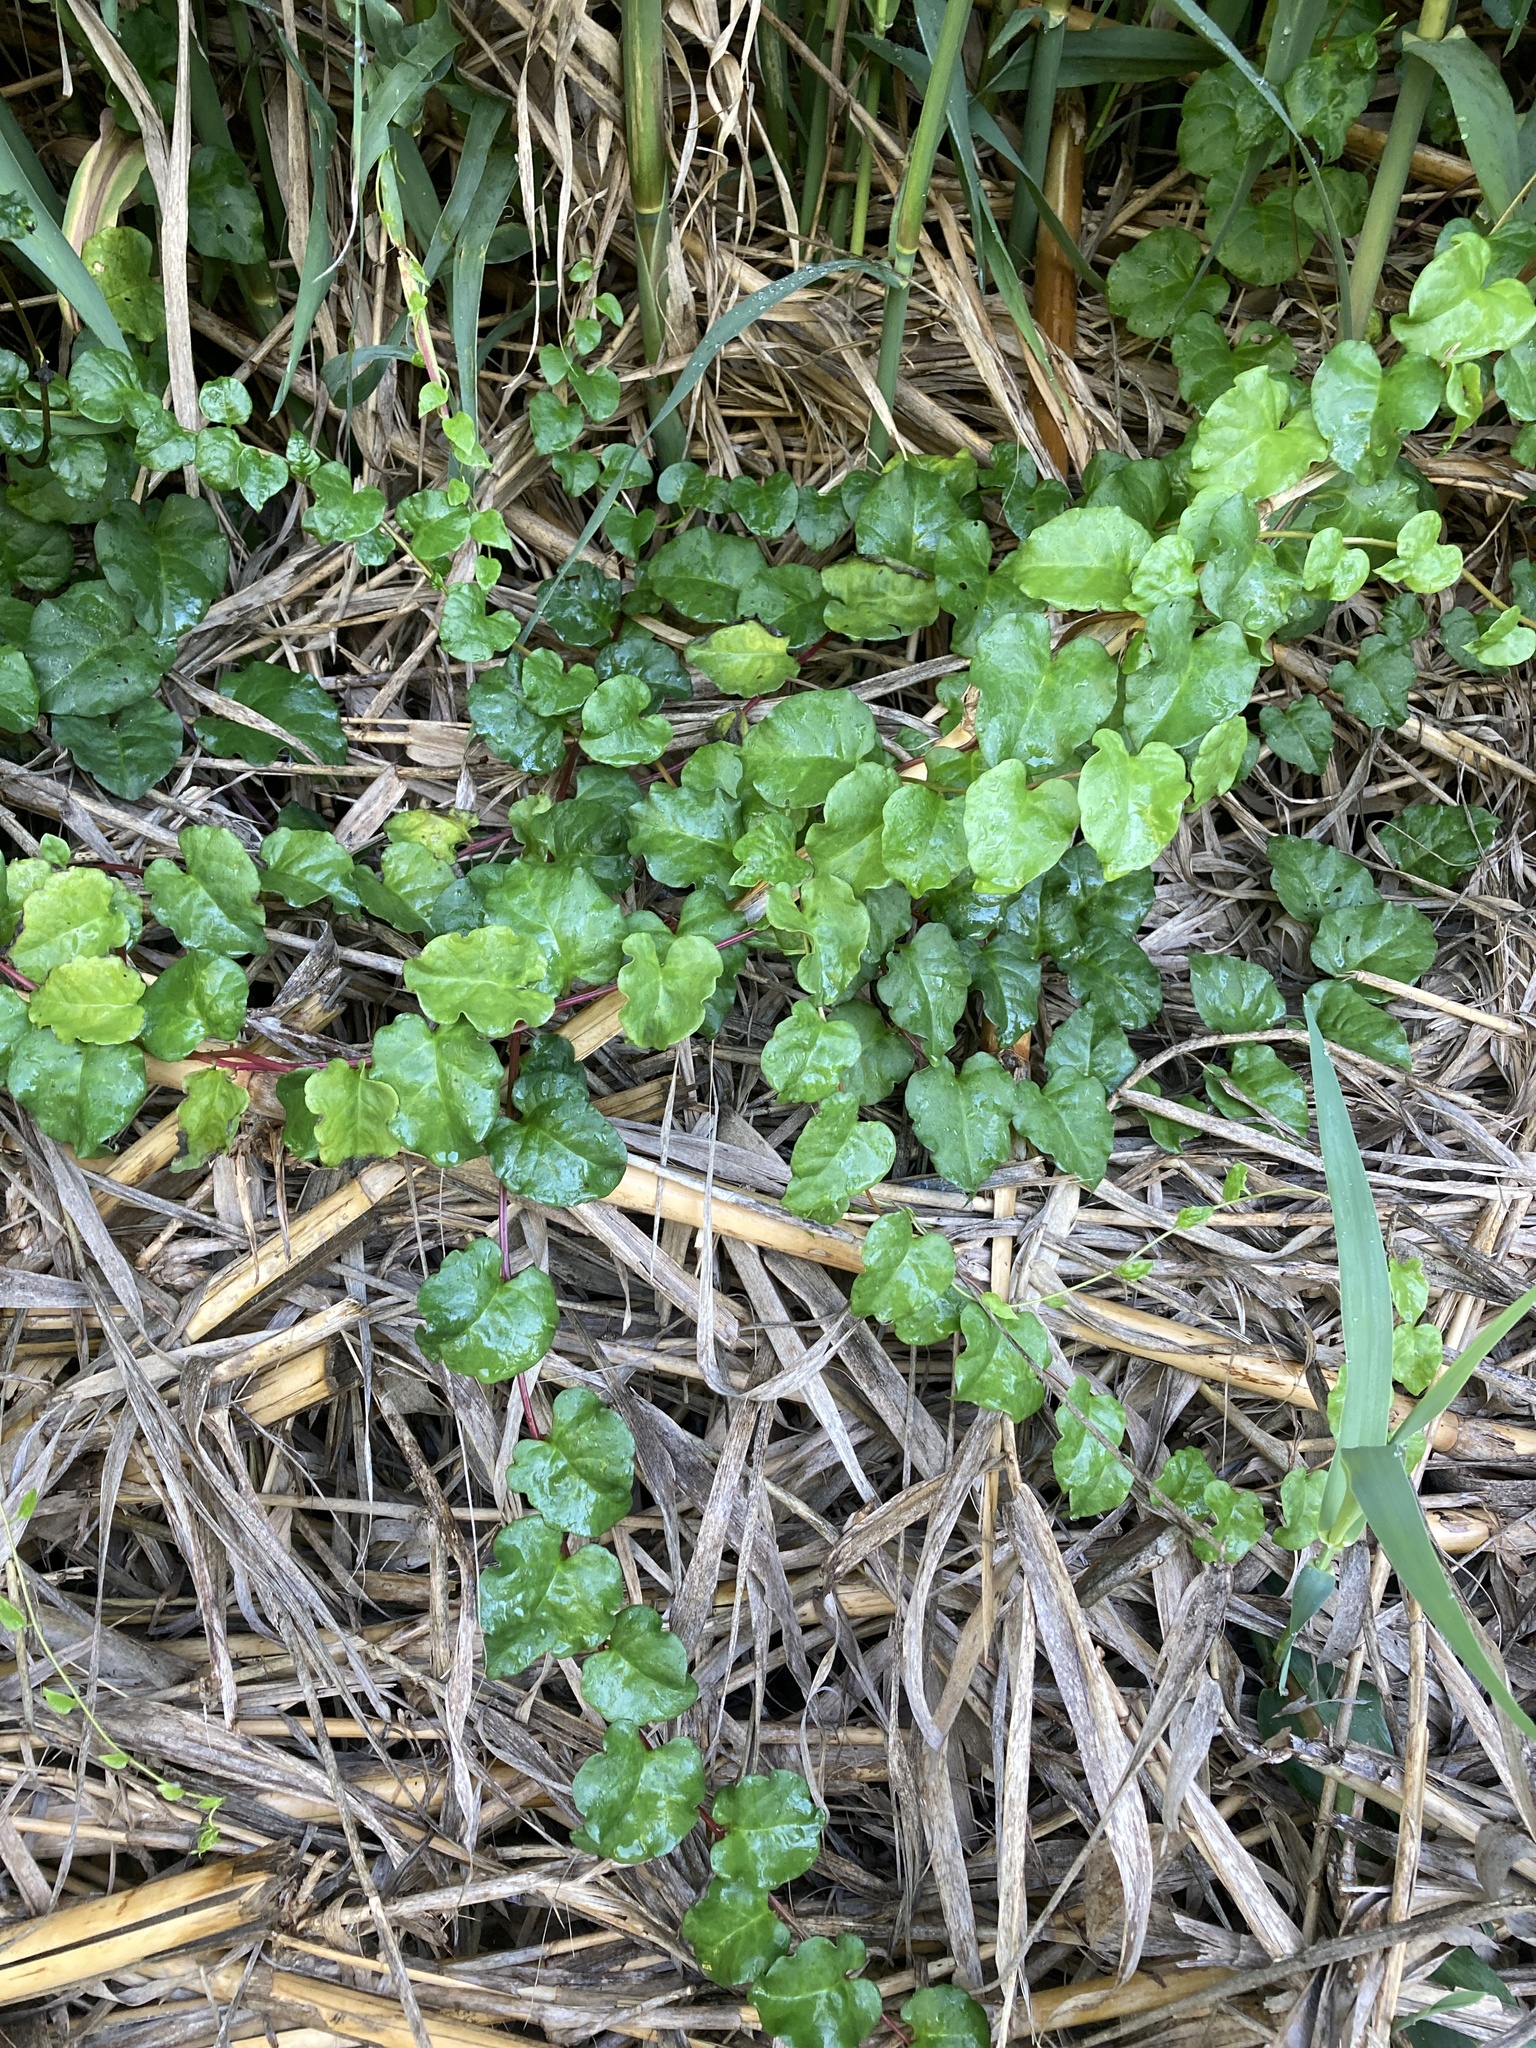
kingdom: Plantae
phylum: Tracheophyta
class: Magnoliopsida
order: Caryophyllales
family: Basellaceae
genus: Anredera
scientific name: Anredera cordifolia
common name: Heartleaf madeiravine
